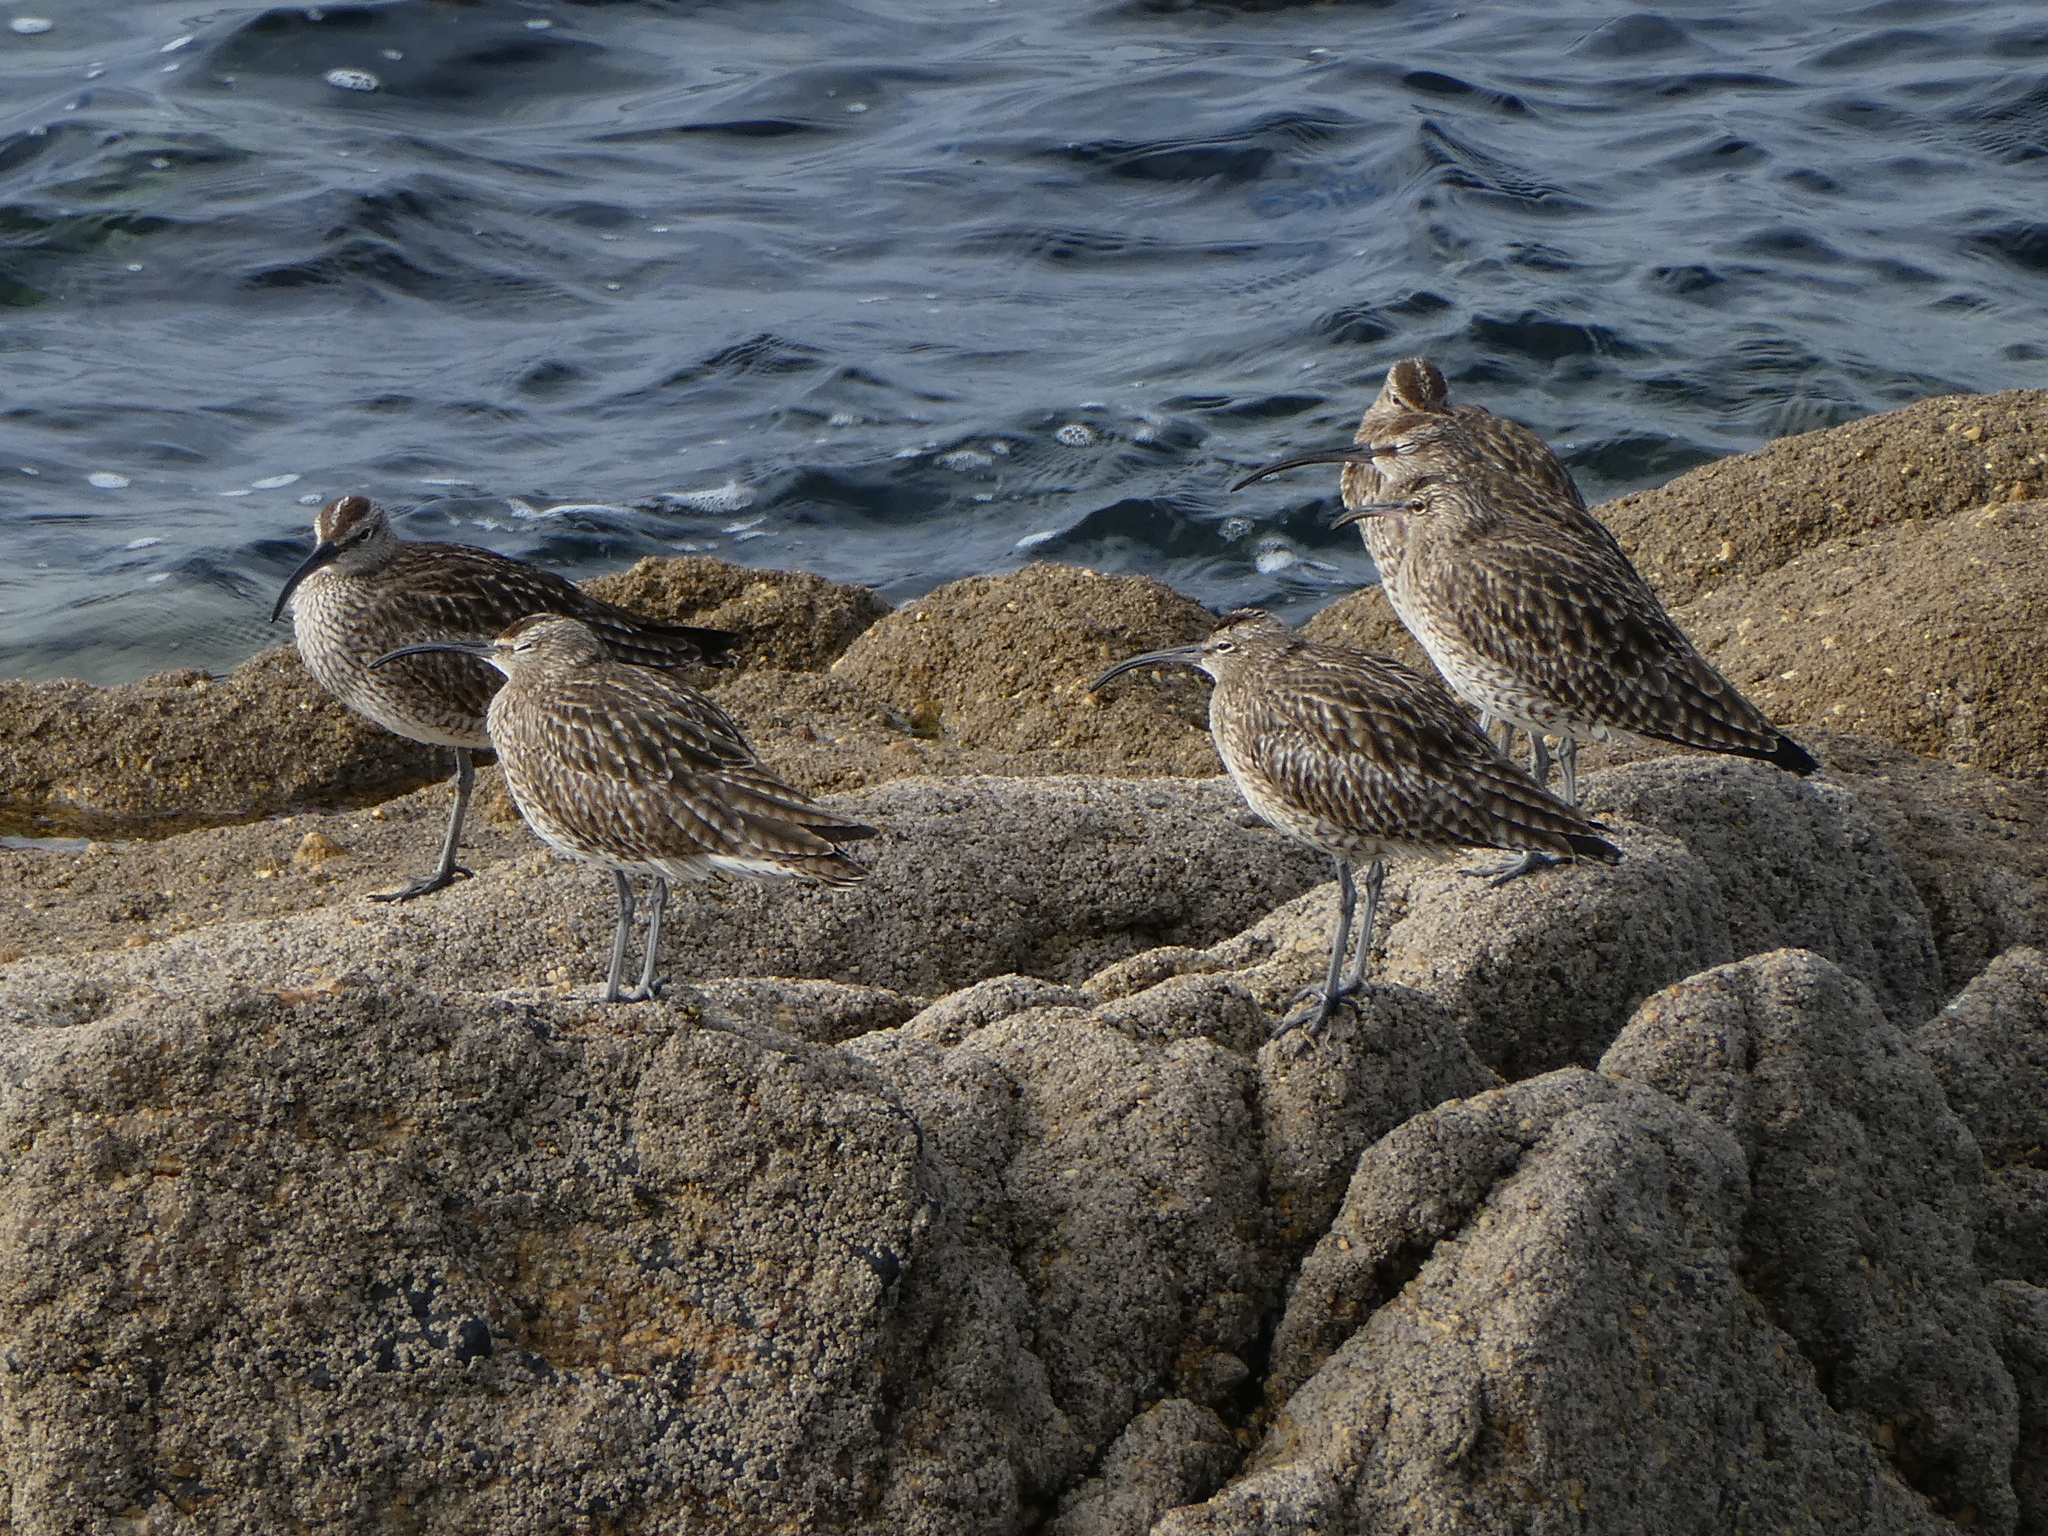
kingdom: Animalia
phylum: Chordata
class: Aves
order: Charadriiformes
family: Scolopacidae
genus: Numenius
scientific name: Numenius phaeopus
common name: Whimbrel
